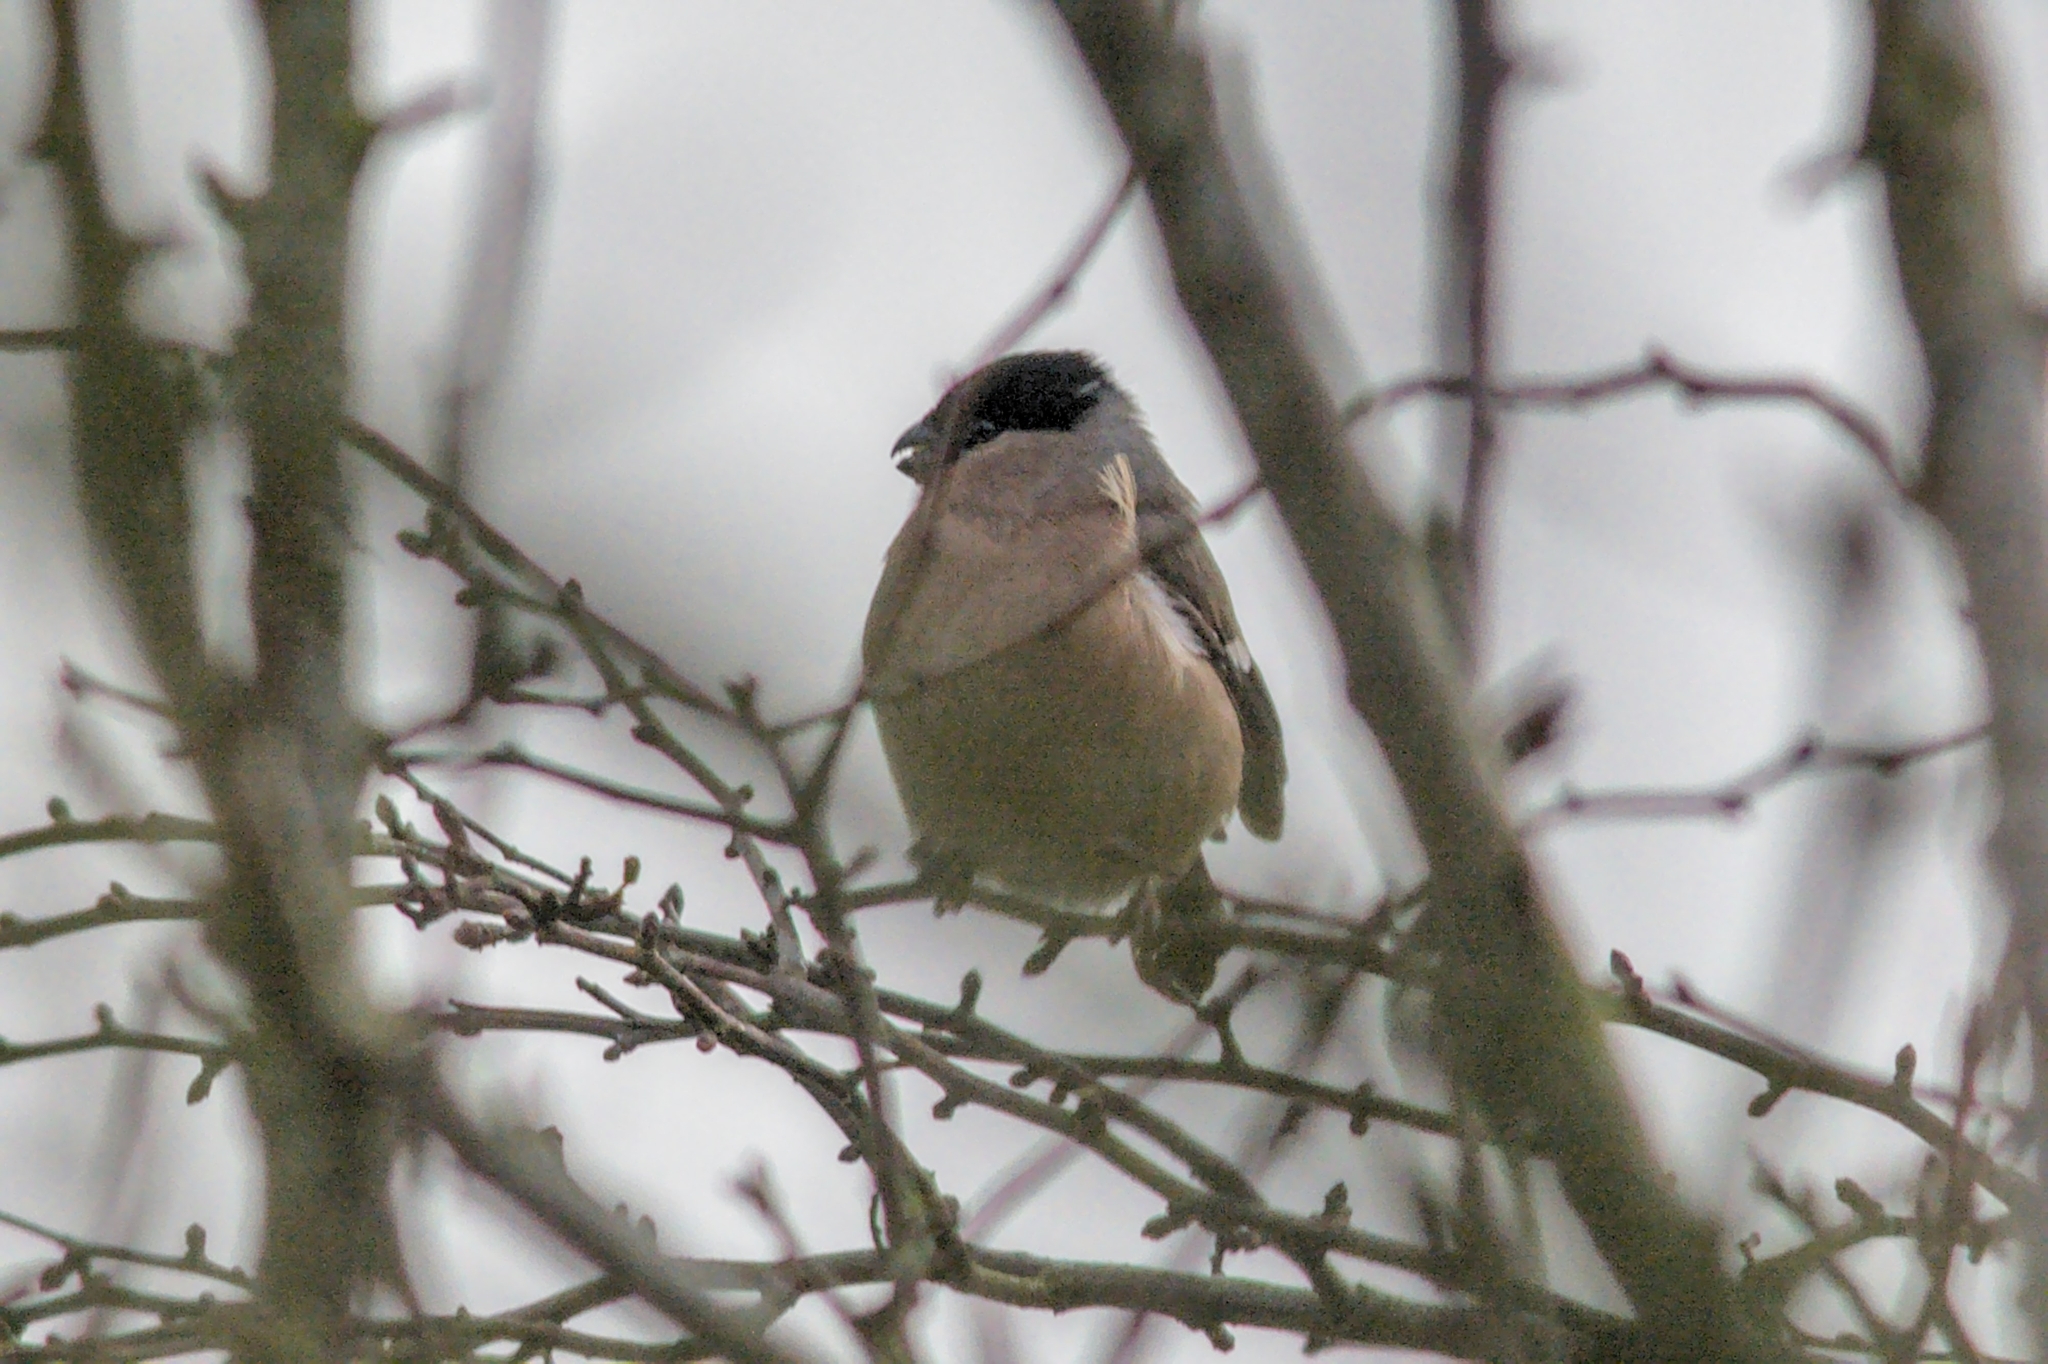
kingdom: Animalia
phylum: Chordata
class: Aves
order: Passeriformes
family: Fringillidae
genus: Pyrrhula
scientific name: Pyrrhula pyrrhula
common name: Eurasian bullfinch
